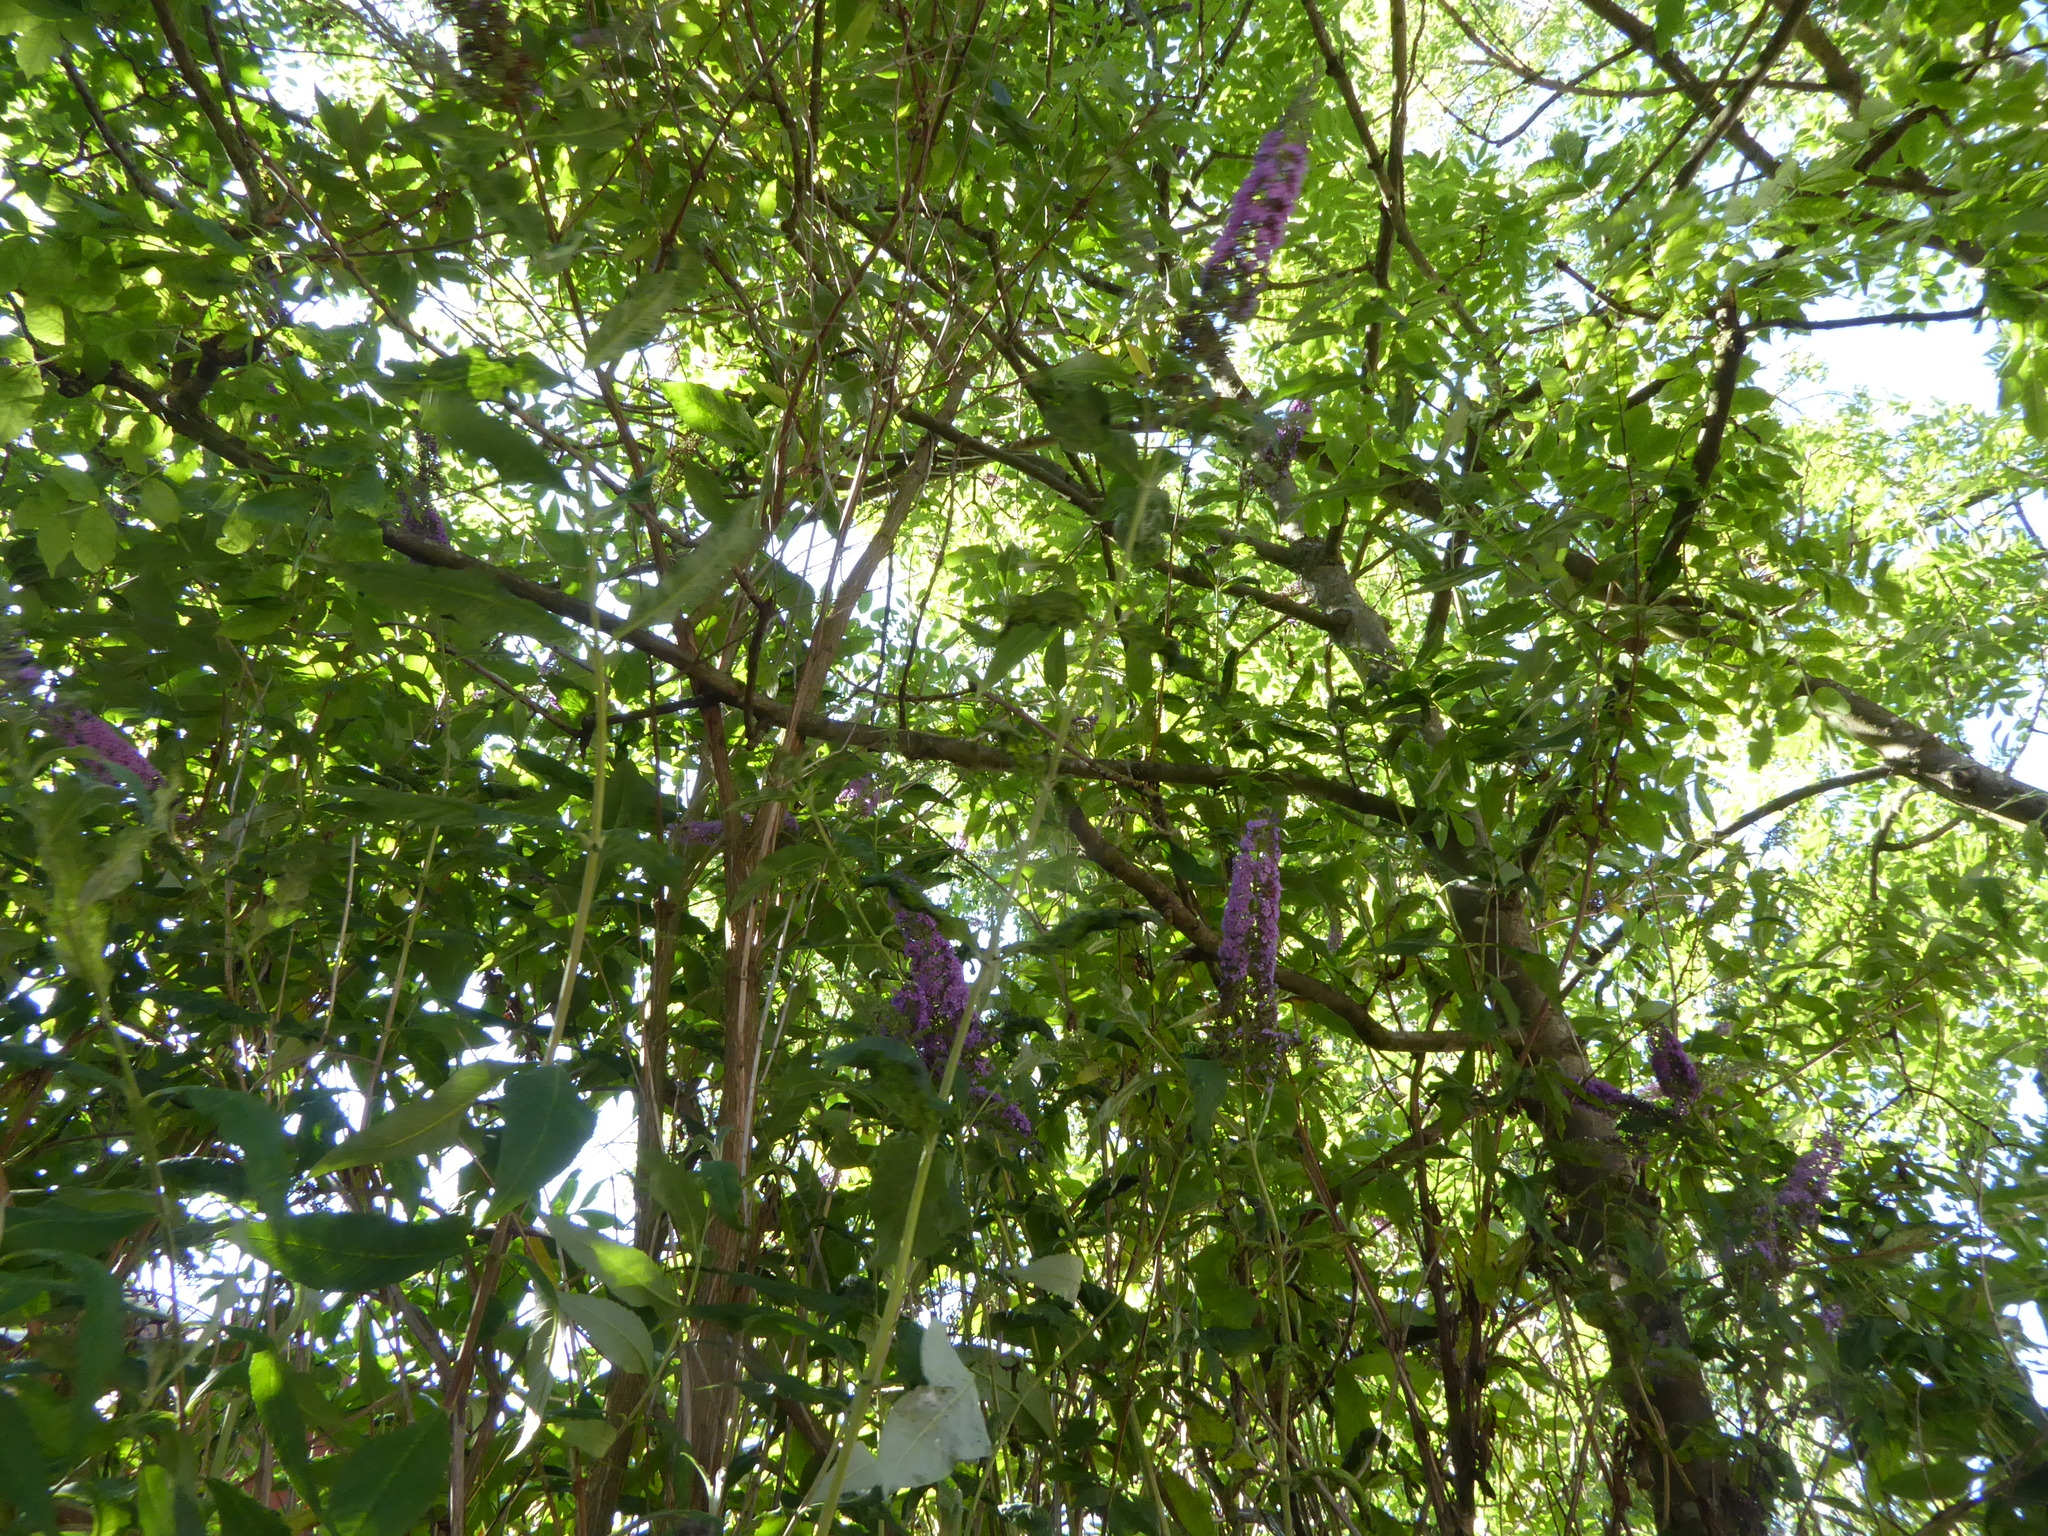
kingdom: Plantae
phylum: Tracheophyta
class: Magnoliopsida
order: Lamiales
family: Scrophulariaceae
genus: Buddleja
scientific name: Buddleja davidii
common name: Butterfly-bush
